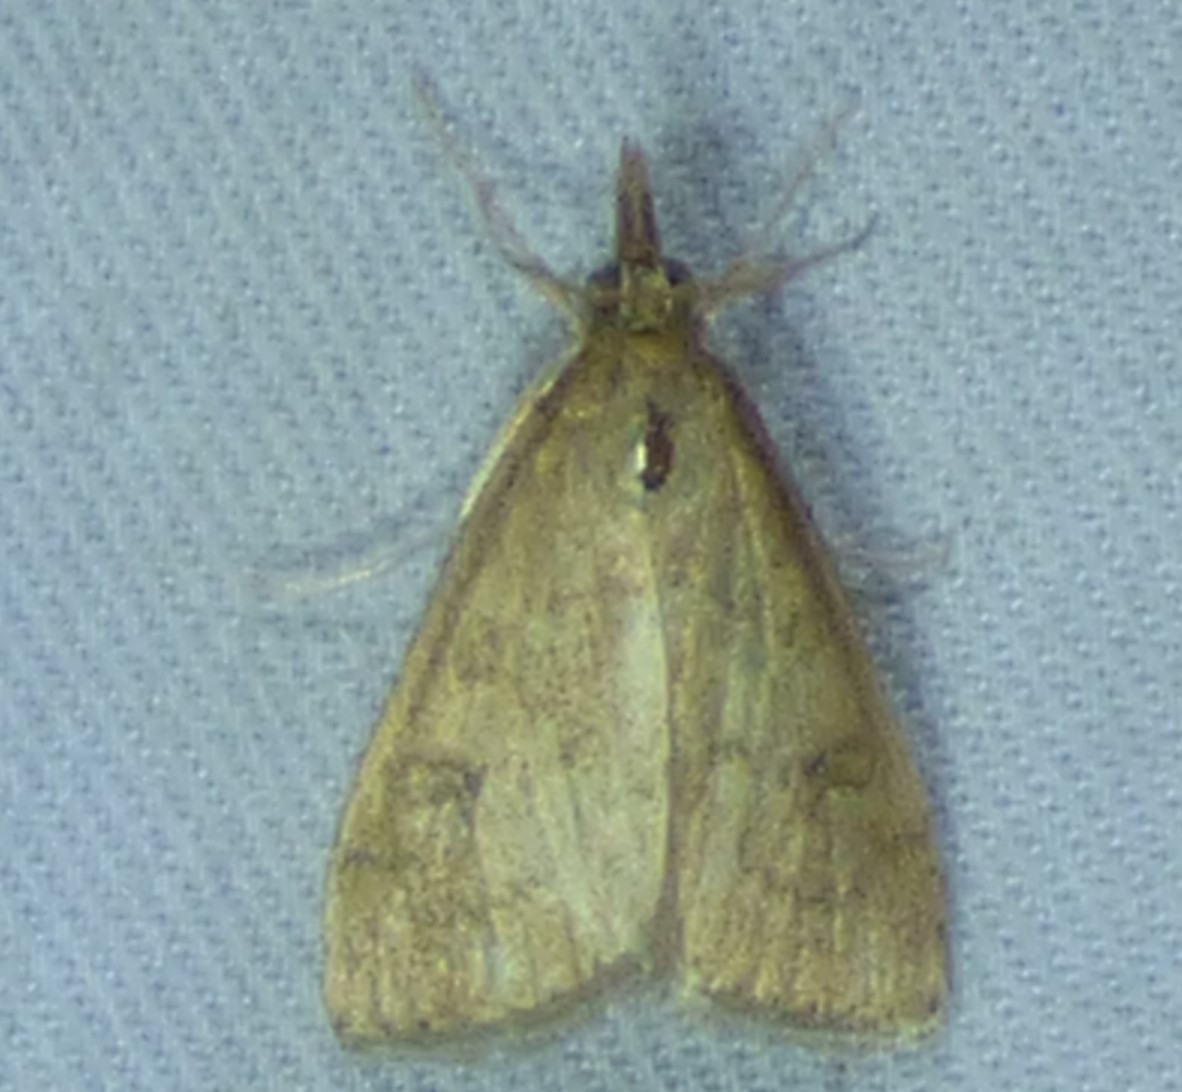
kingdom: Animalia
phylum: Arthropoda
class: Insecta
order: Lepidoptera
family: Crambidae
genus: Udea
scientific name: Udea rubigalis
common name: Celery leaftier moth
